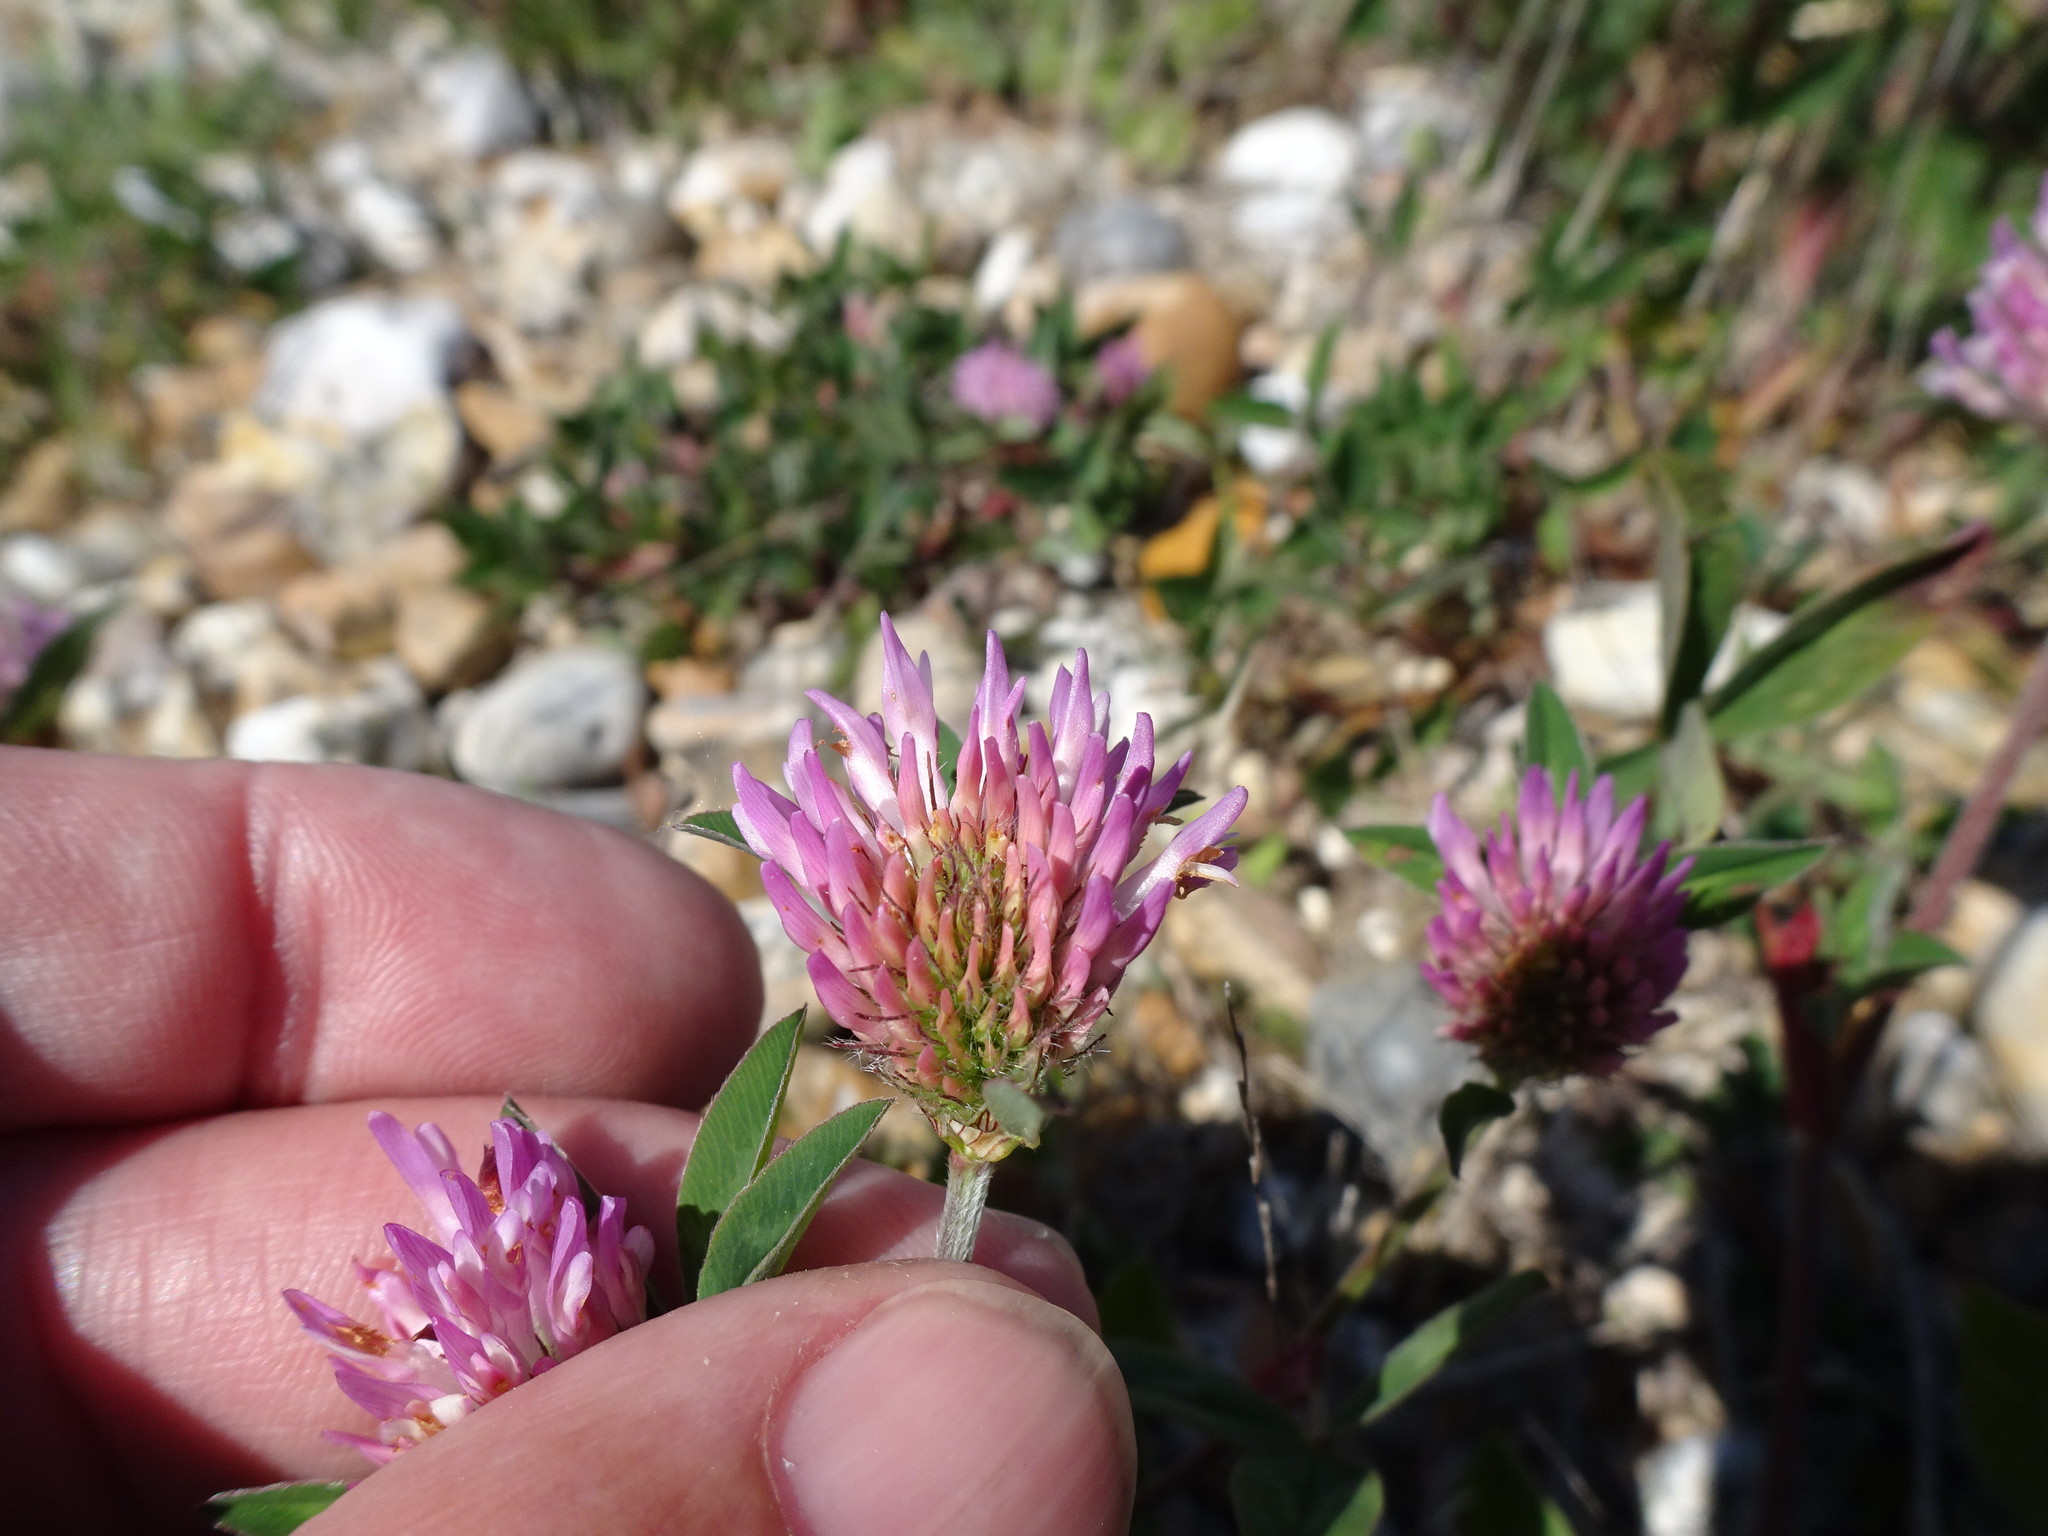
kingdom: Plantae
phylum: Tracheophyta
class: Magnoliopsida
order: Fabales
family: Fabaceae
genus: Trifolium
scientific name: Trifolium pratense
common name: Red clover
